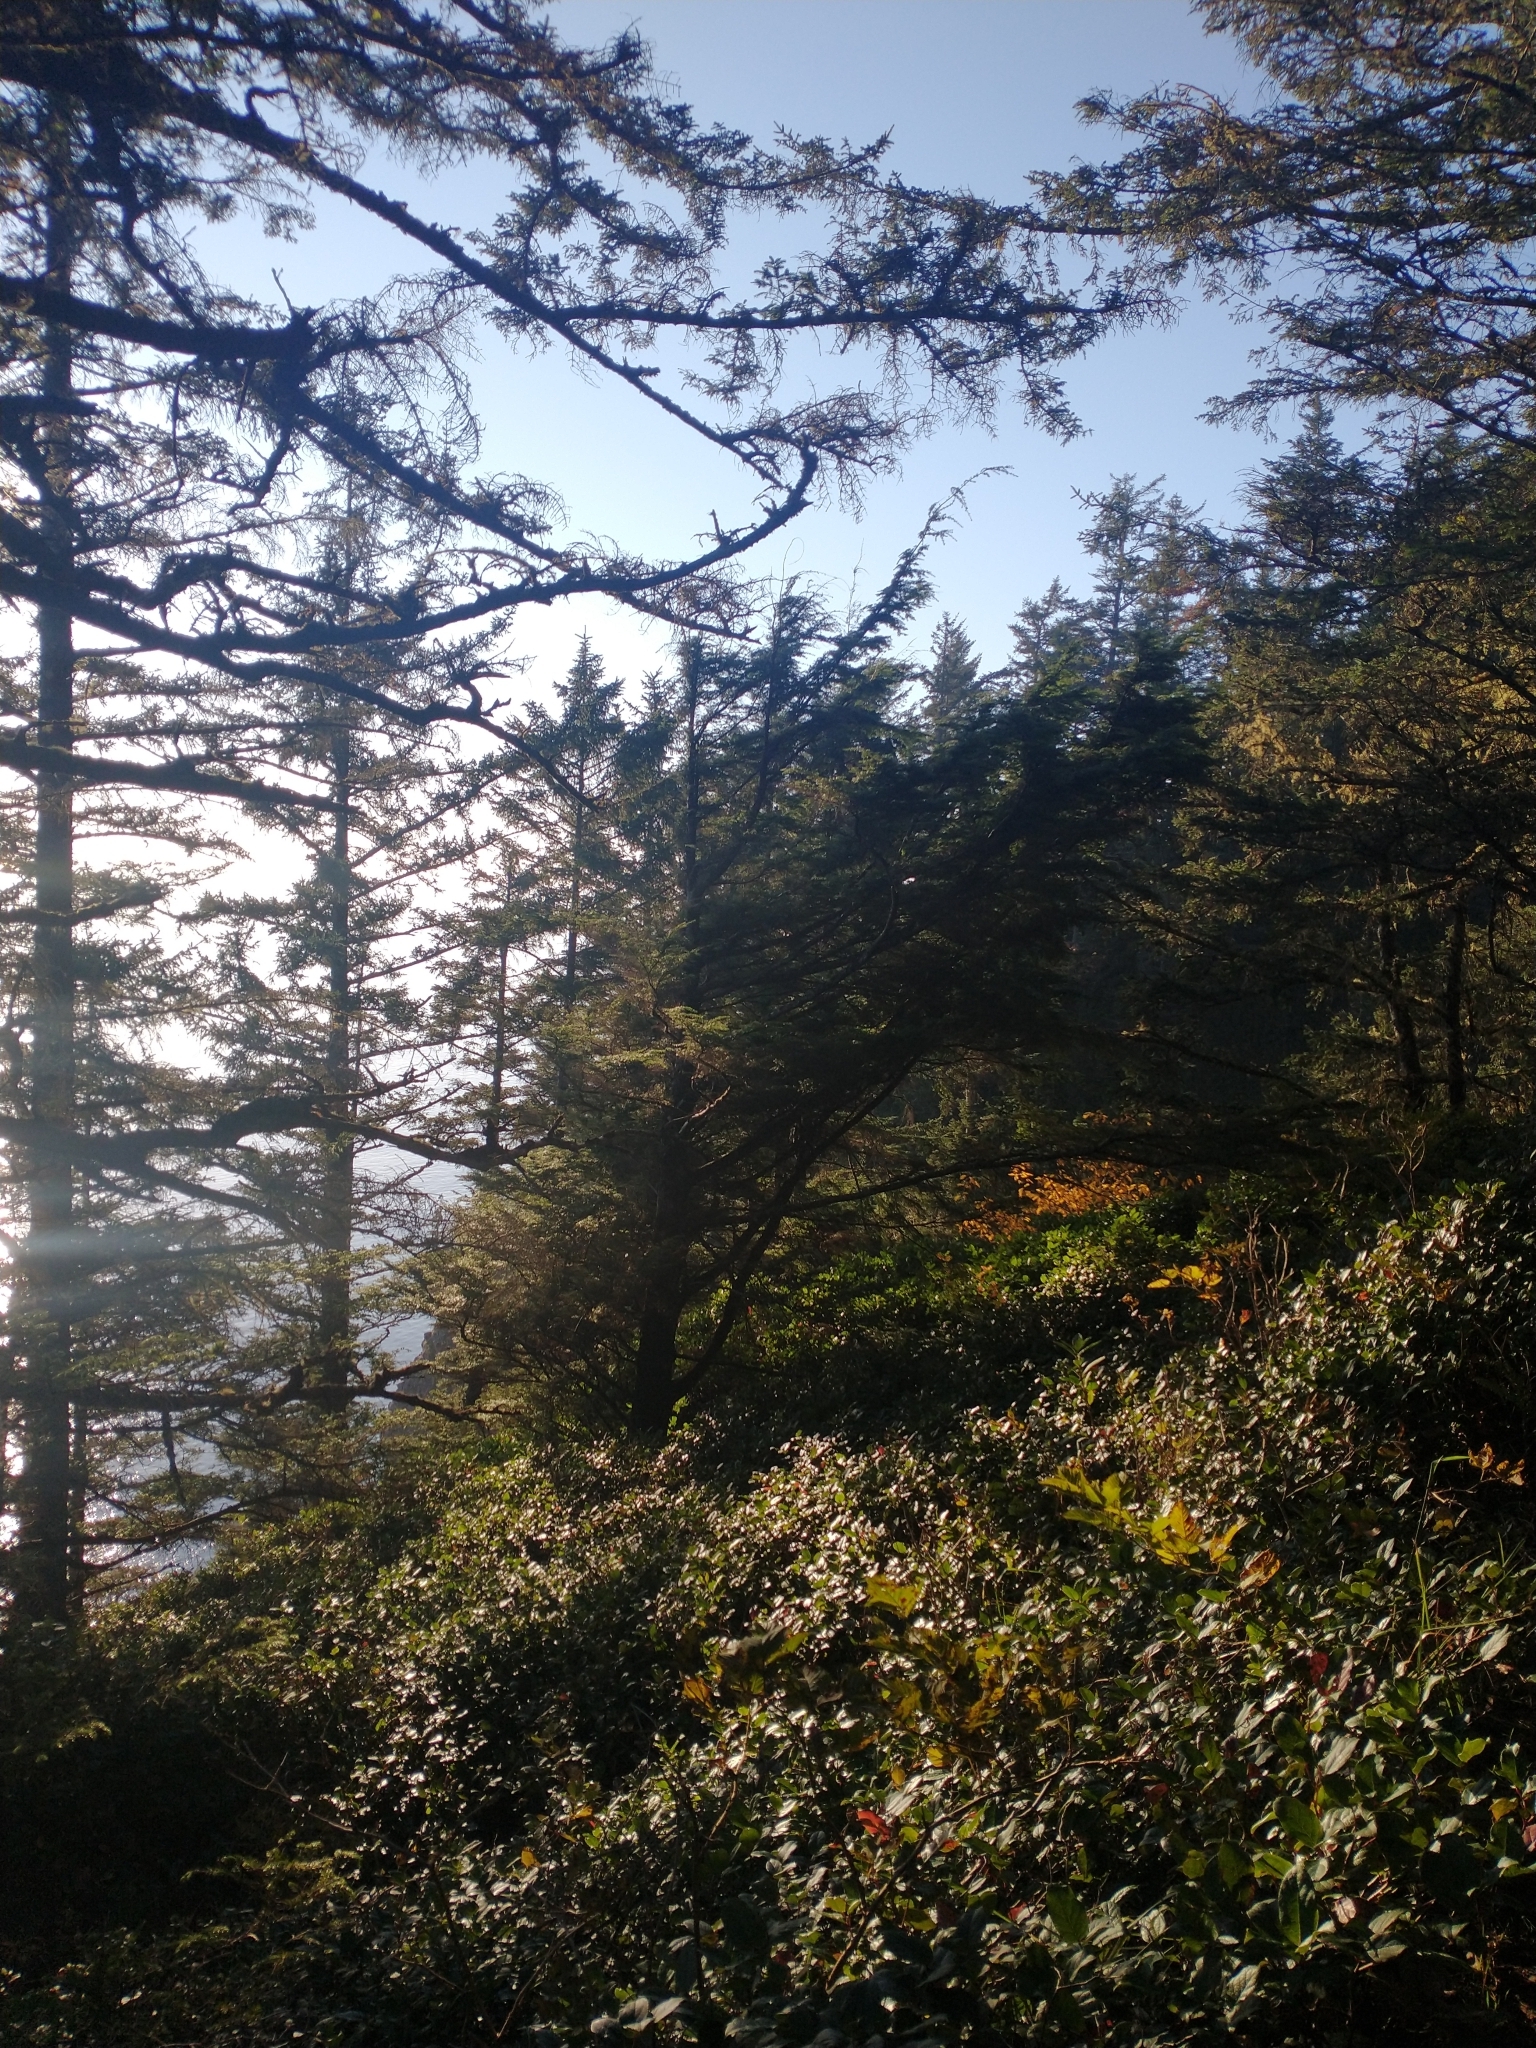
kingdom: Plantae
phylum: Tracheophyta
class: Pinopsida
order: Pinales
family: Pinaceae
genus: Tsuga
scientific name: Tsuga heterophylla
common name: Western hemlock
